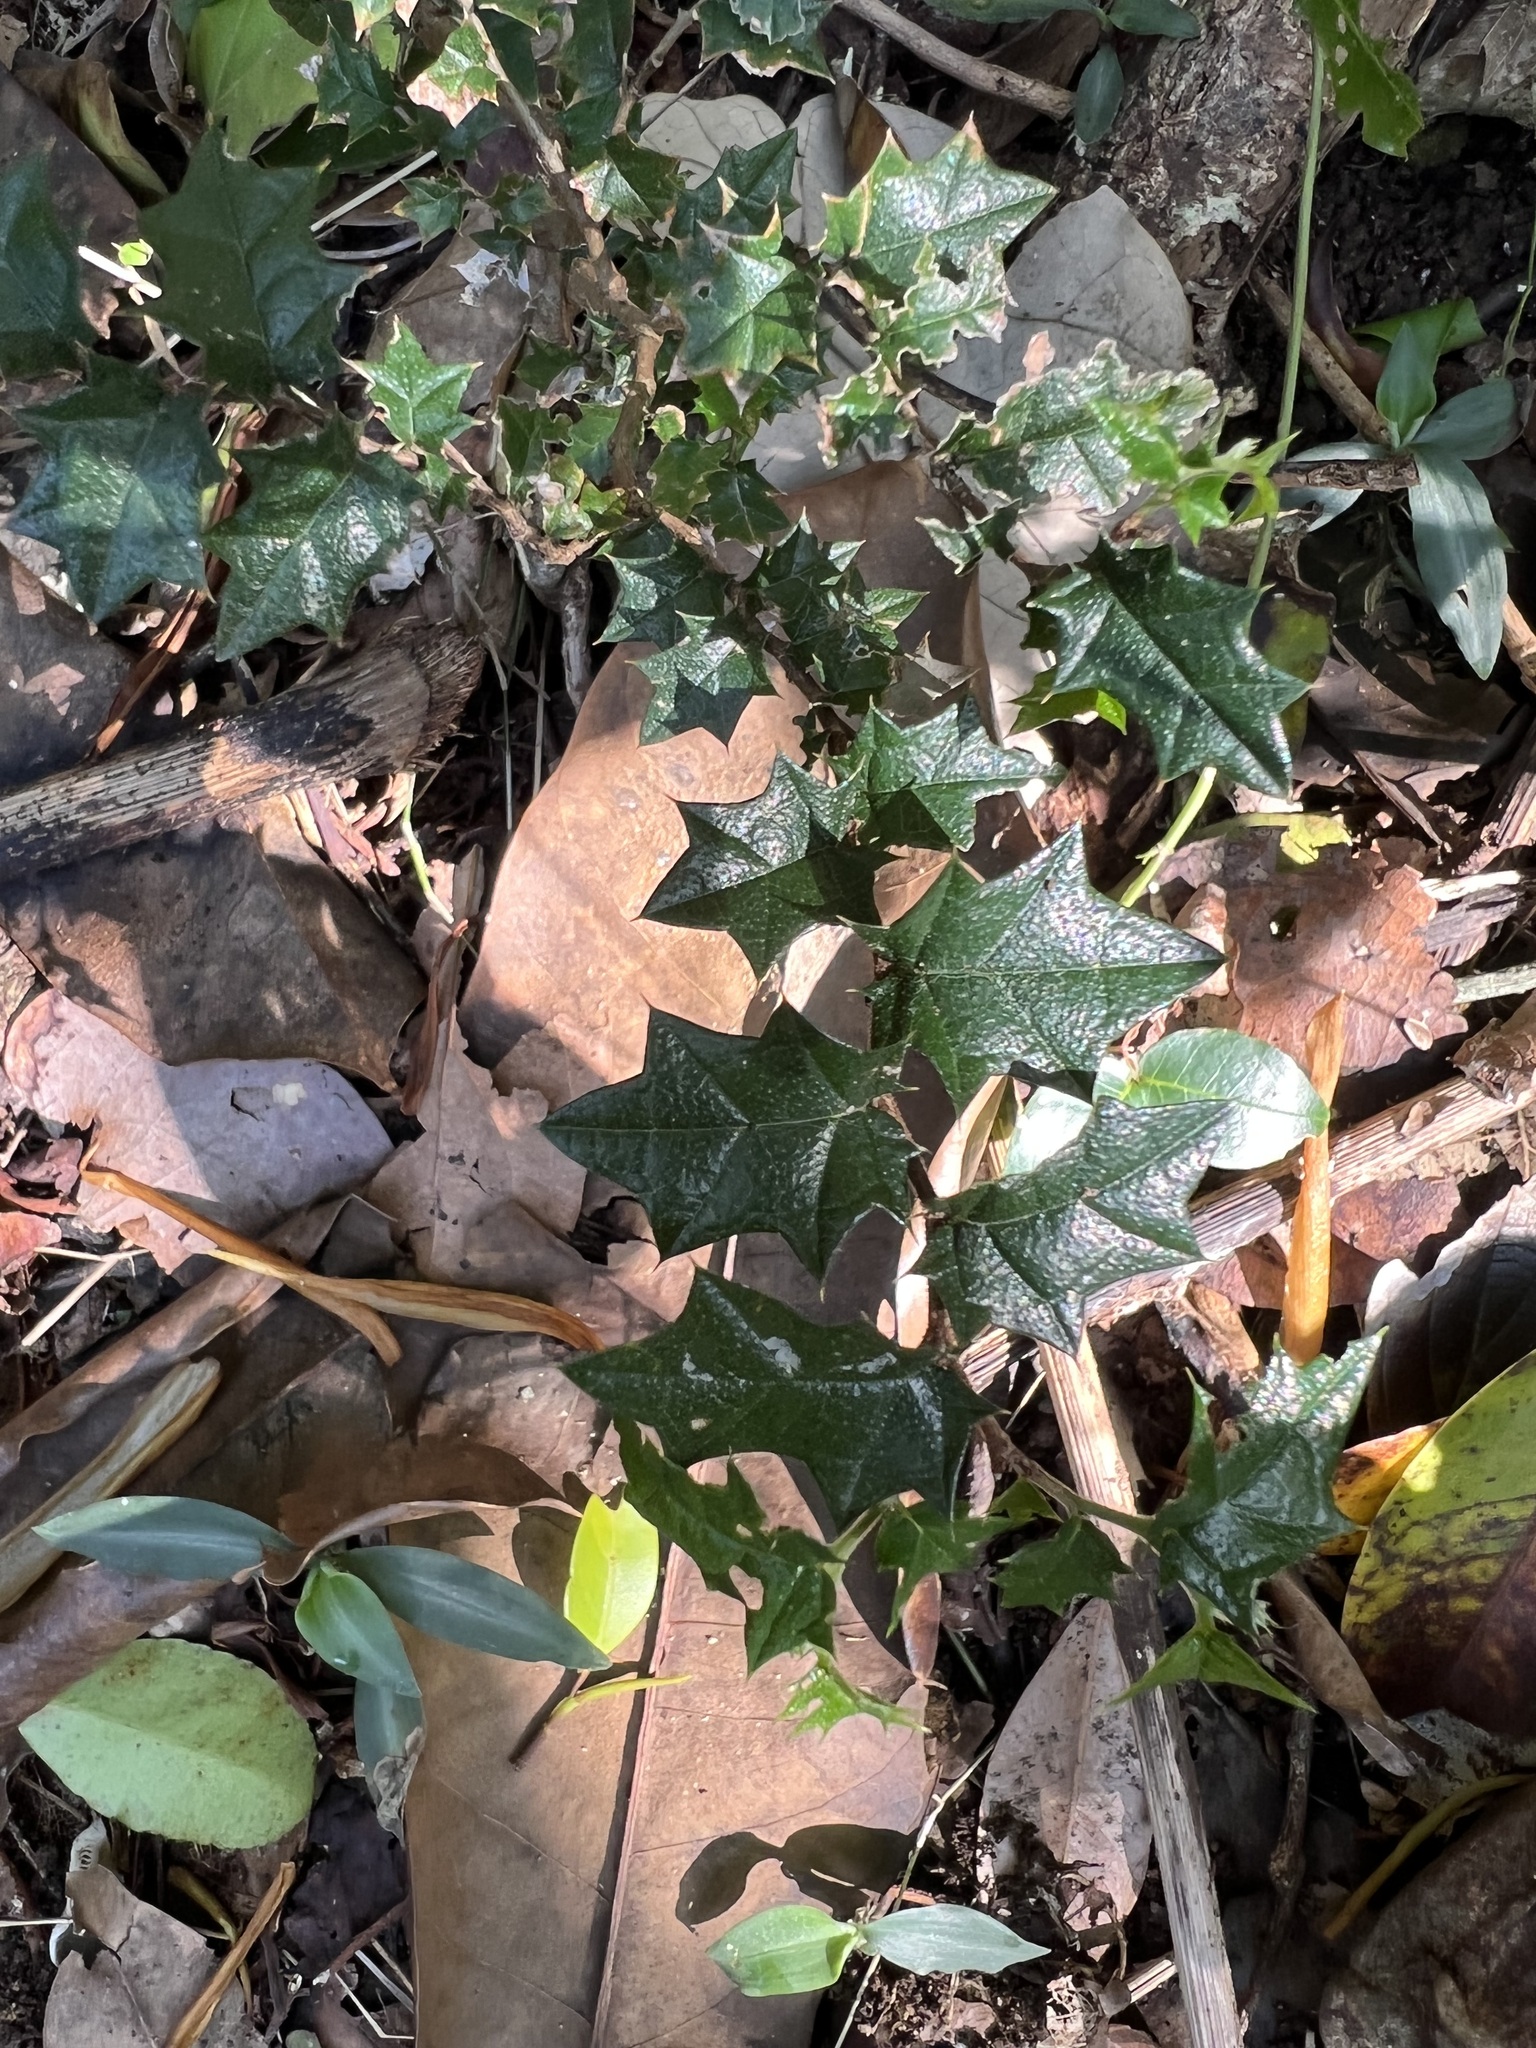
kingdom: Plantae
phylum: Tracheophyta
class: Magnoliopsida
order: Rosales
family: Cannabaceae
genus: Aphananthe
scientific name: Aphananthe philippinensis
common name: Wild holly
